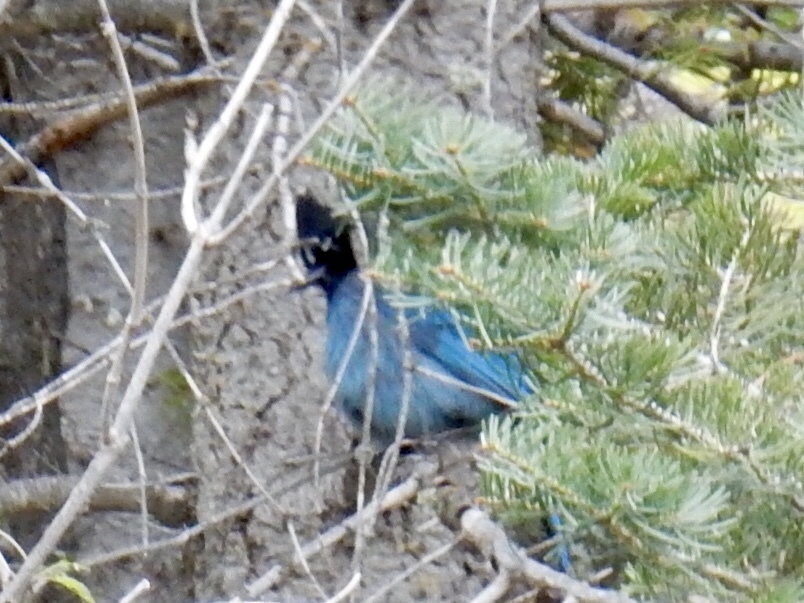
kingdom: Animalia
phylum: Chordata
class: Aves
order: Passeriformes
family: Corvidae
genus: Cyanocitta
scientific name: Cyanocitta stelleri
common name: Steller's jay
